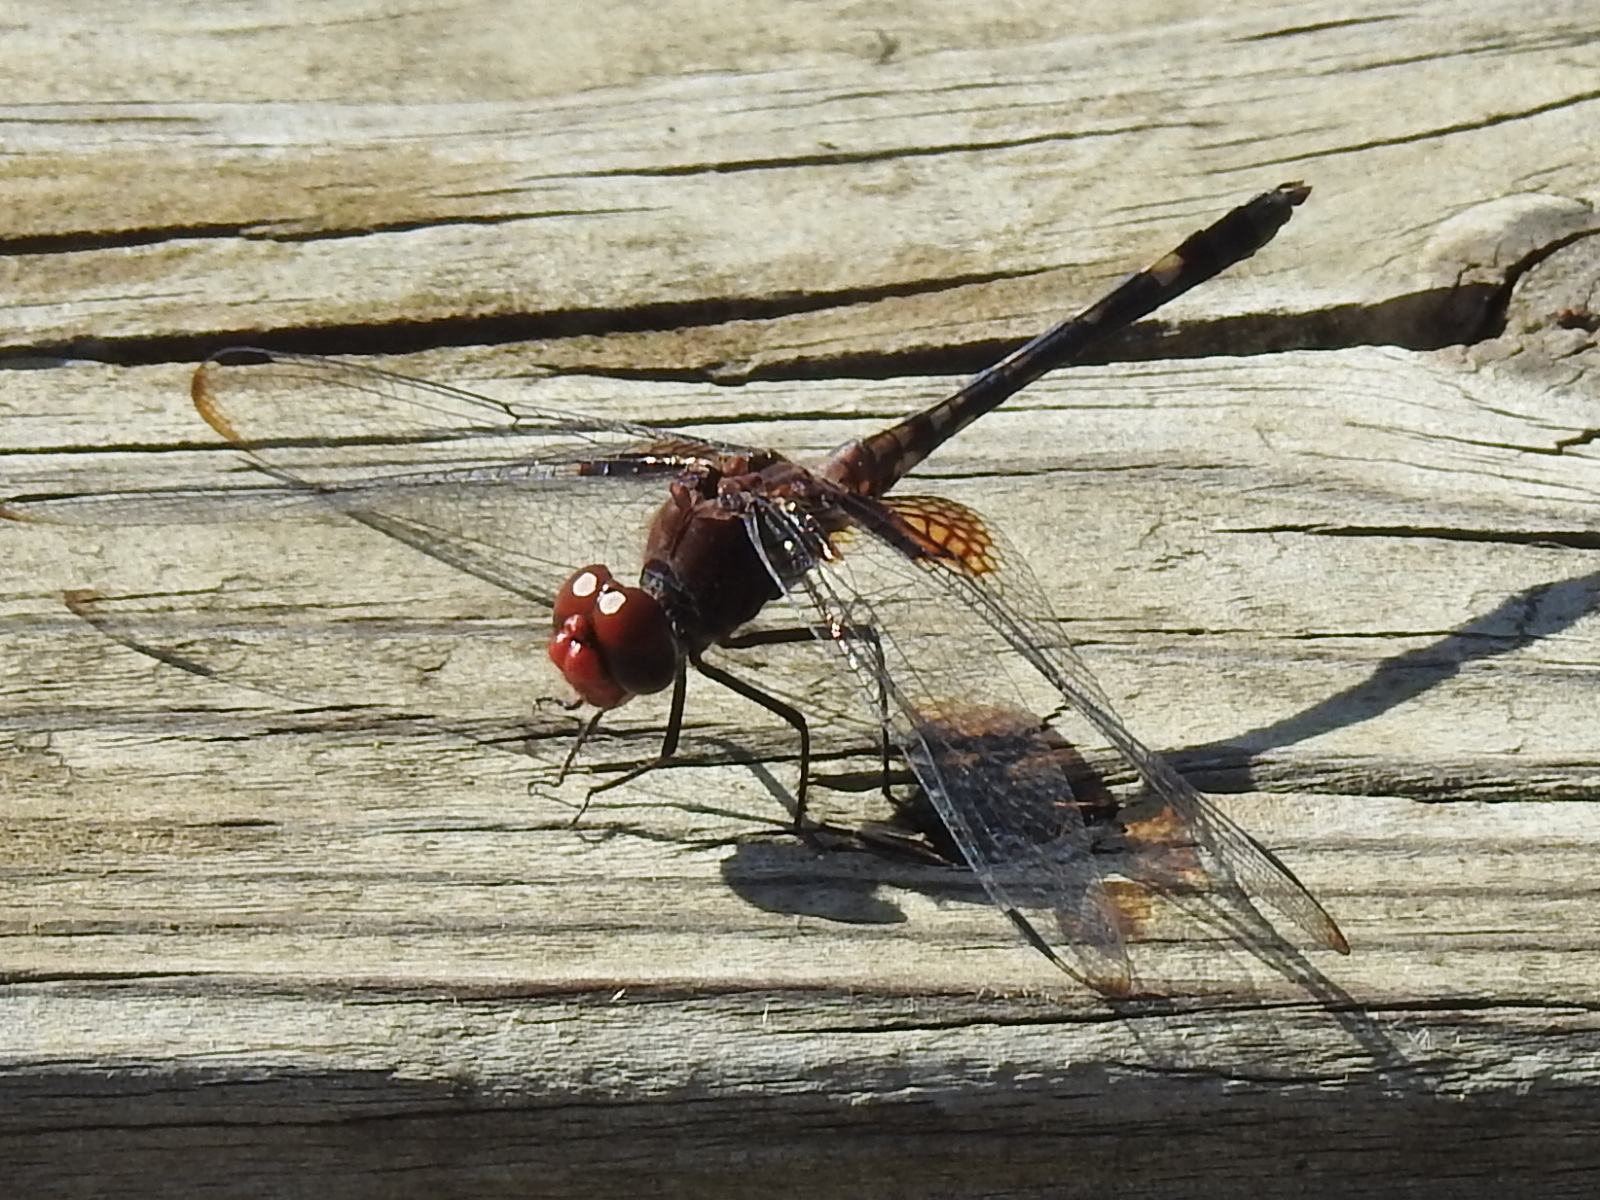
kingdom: Animalia
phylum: Arthropoda
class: Insecta
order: Odonata
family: Libellulidae
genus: Dythemis
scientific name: Dythemis fugax
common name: Checkered setwing
